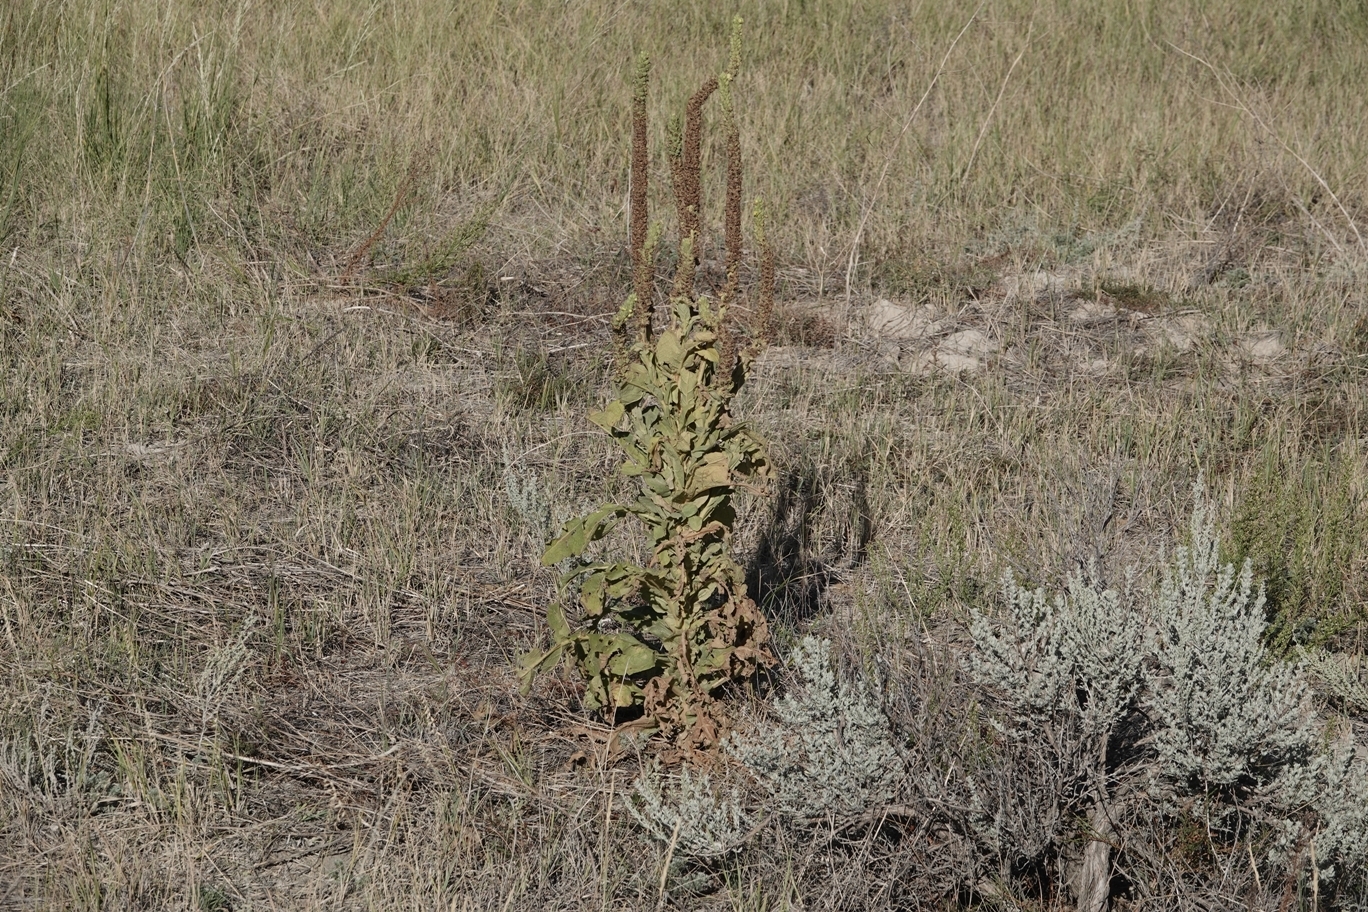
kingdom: Plantae
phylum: Tracheophyta
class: Magnoliopsida
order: Lamiales
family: Scrophulariaceae
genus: Verbascum
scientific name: Verbascum thapsus
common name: Common mullein
